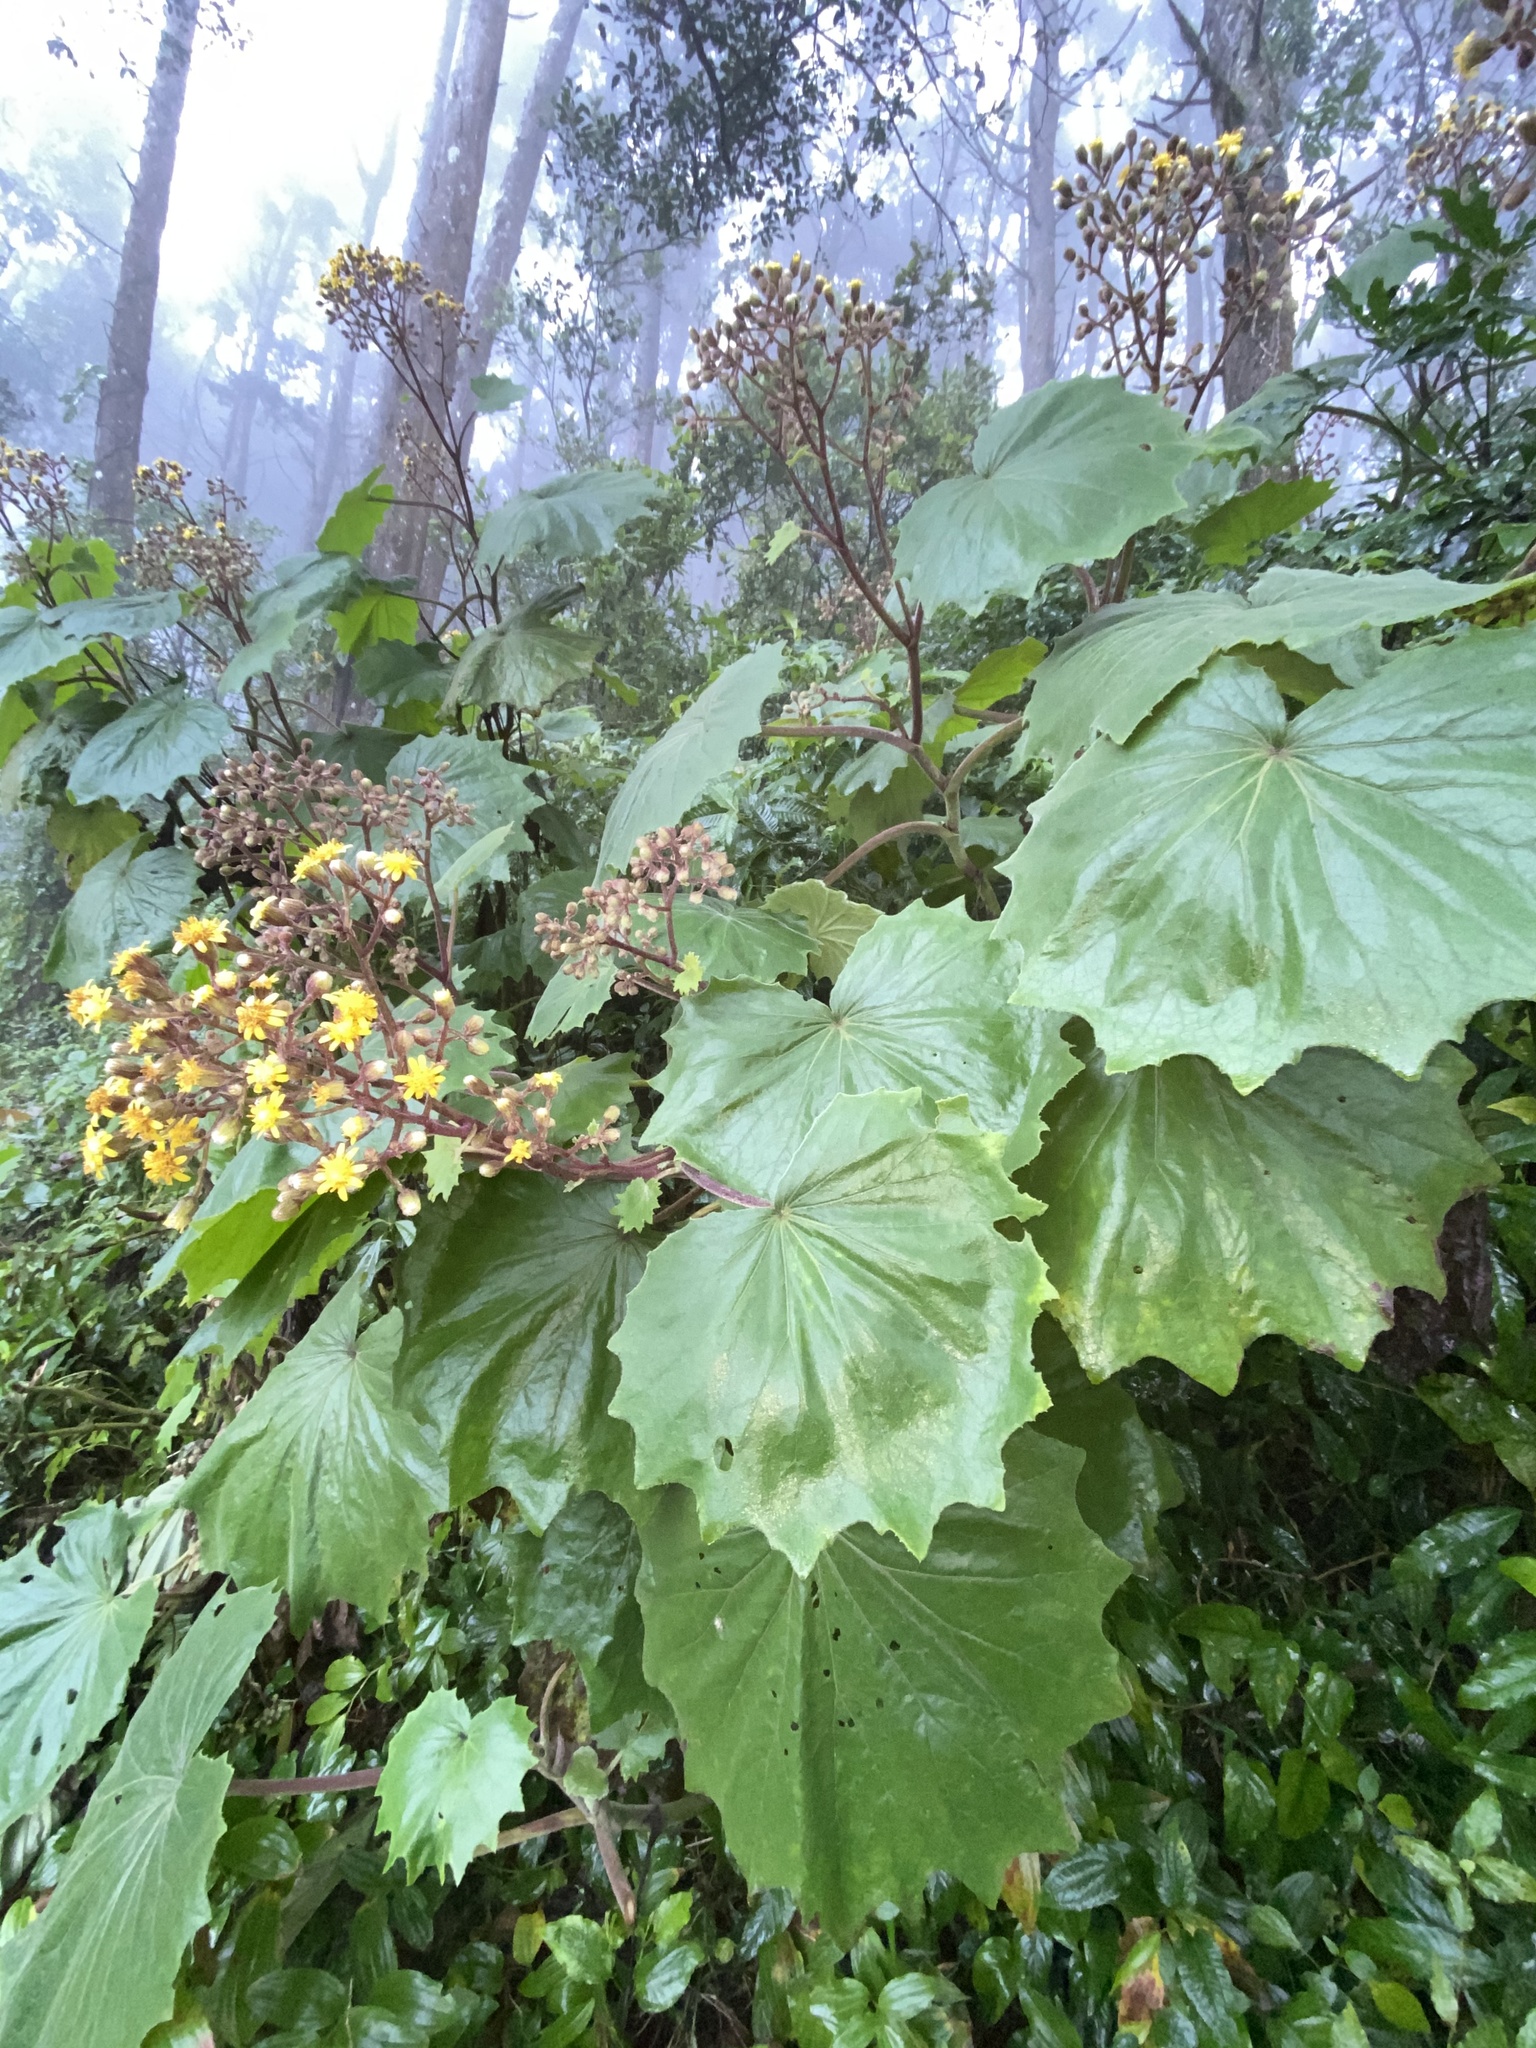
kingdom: Plantae
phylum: Tracheophyta
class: Magnoliopsida
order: Asterales
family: Asteraceae
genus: Roldana
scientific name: Roldana gilgii
